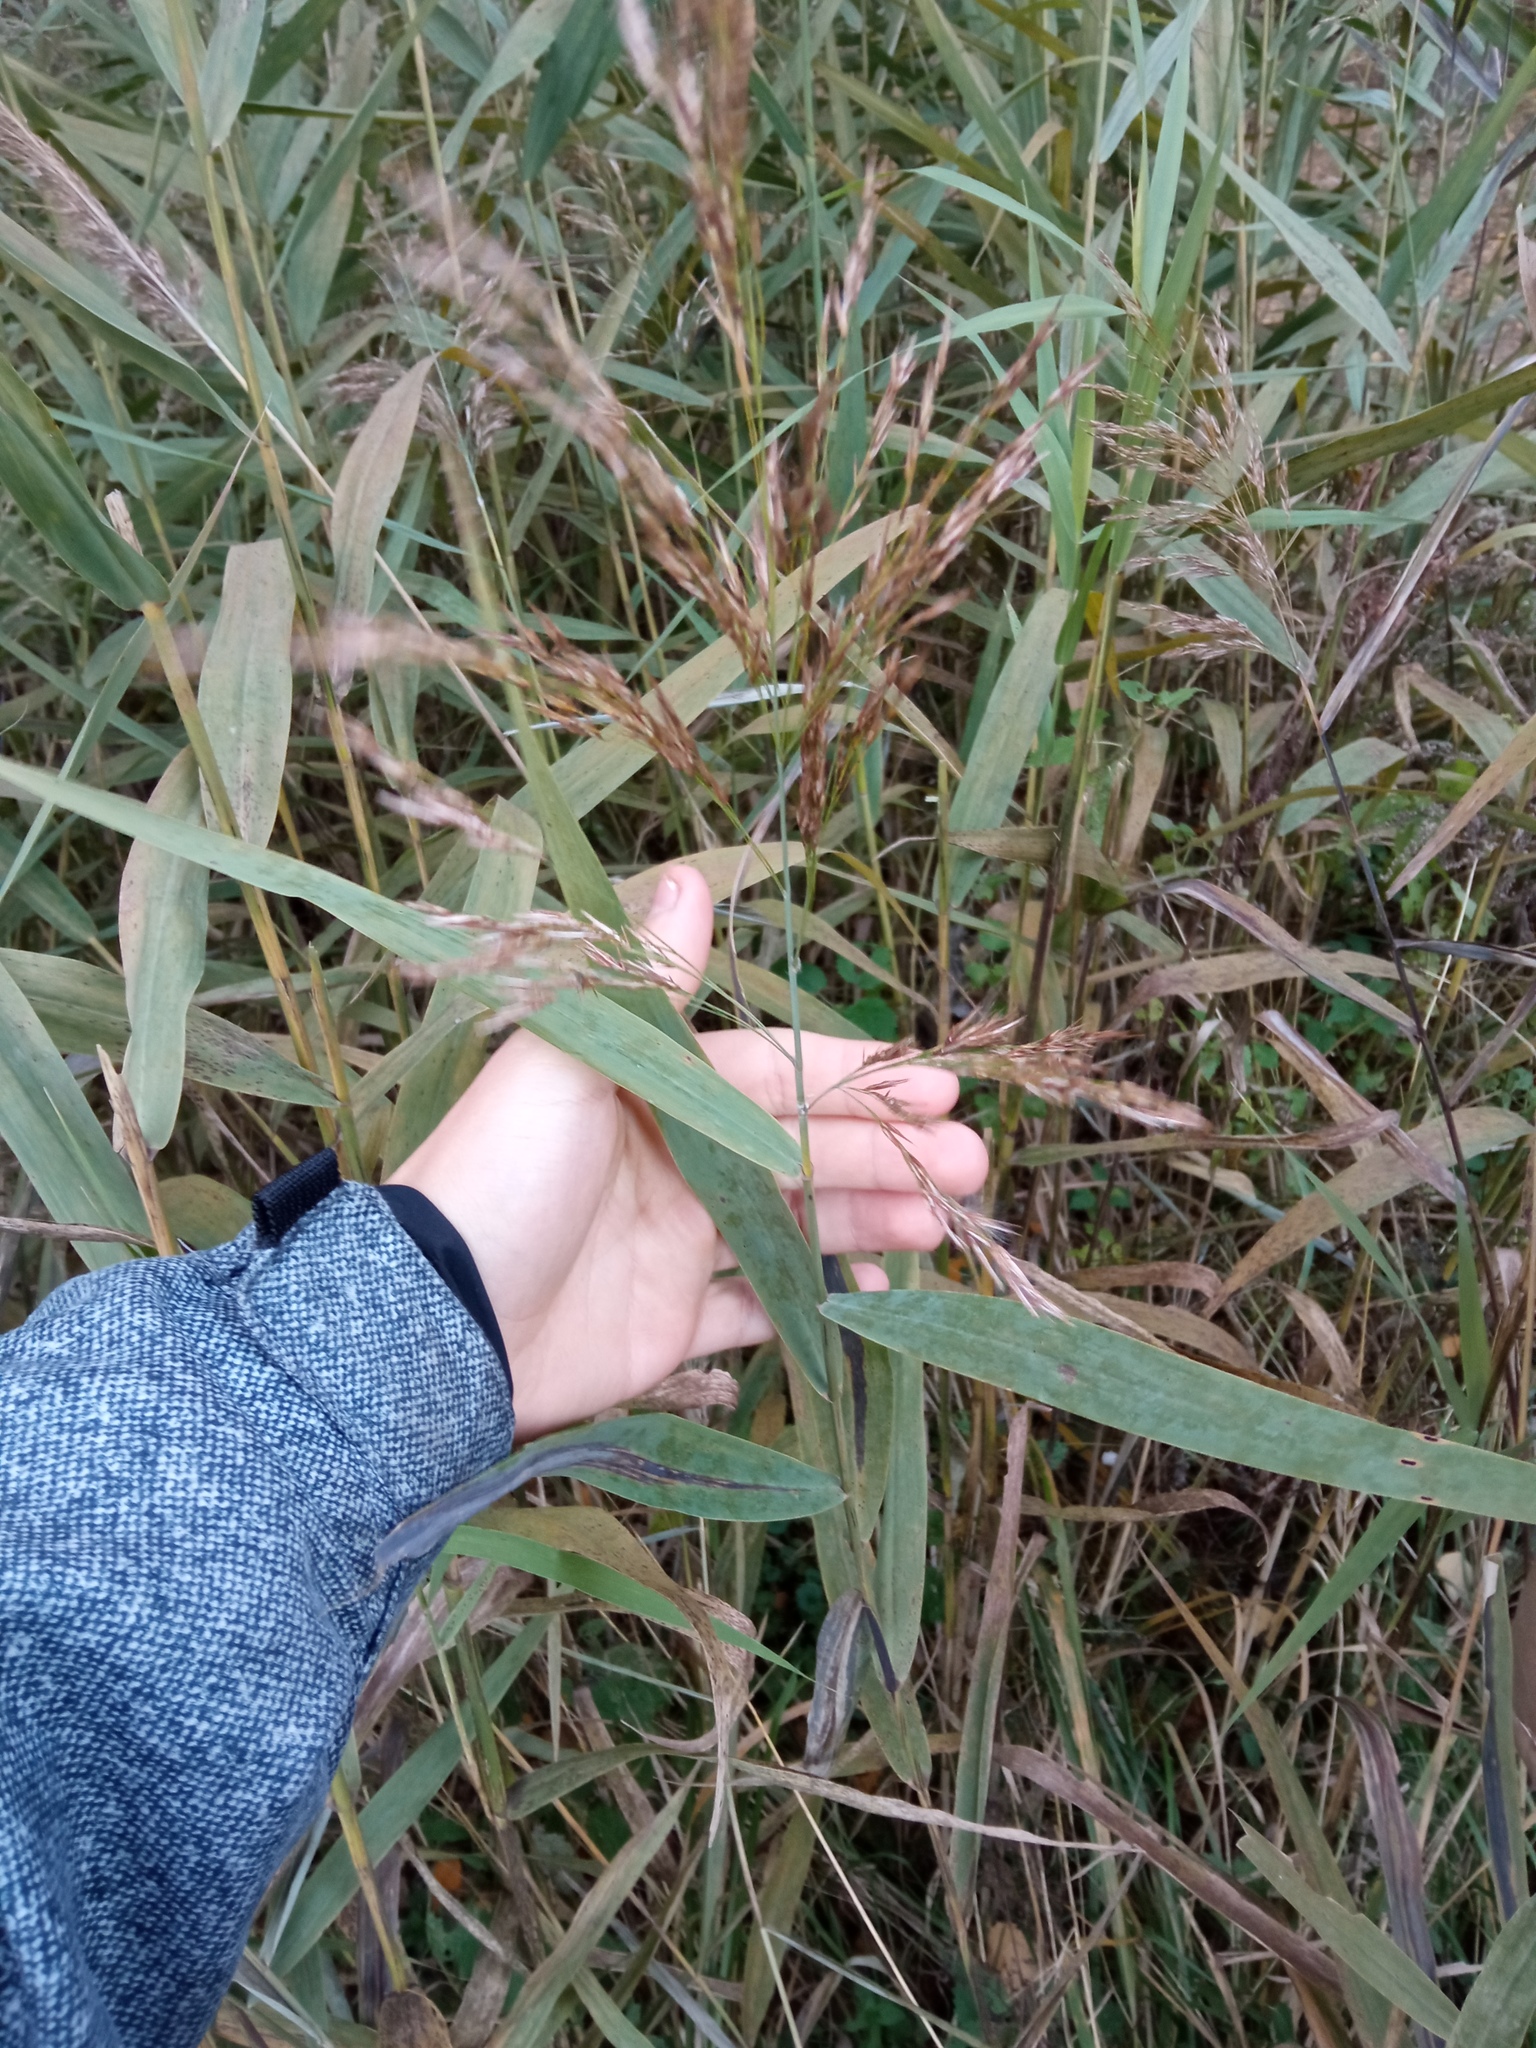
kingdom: Plantae
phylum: Tracheophyta
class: Liliopsida
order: Poales
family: Poaceae
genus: Phragmites
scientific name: Phragmites australis
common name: Common reed
